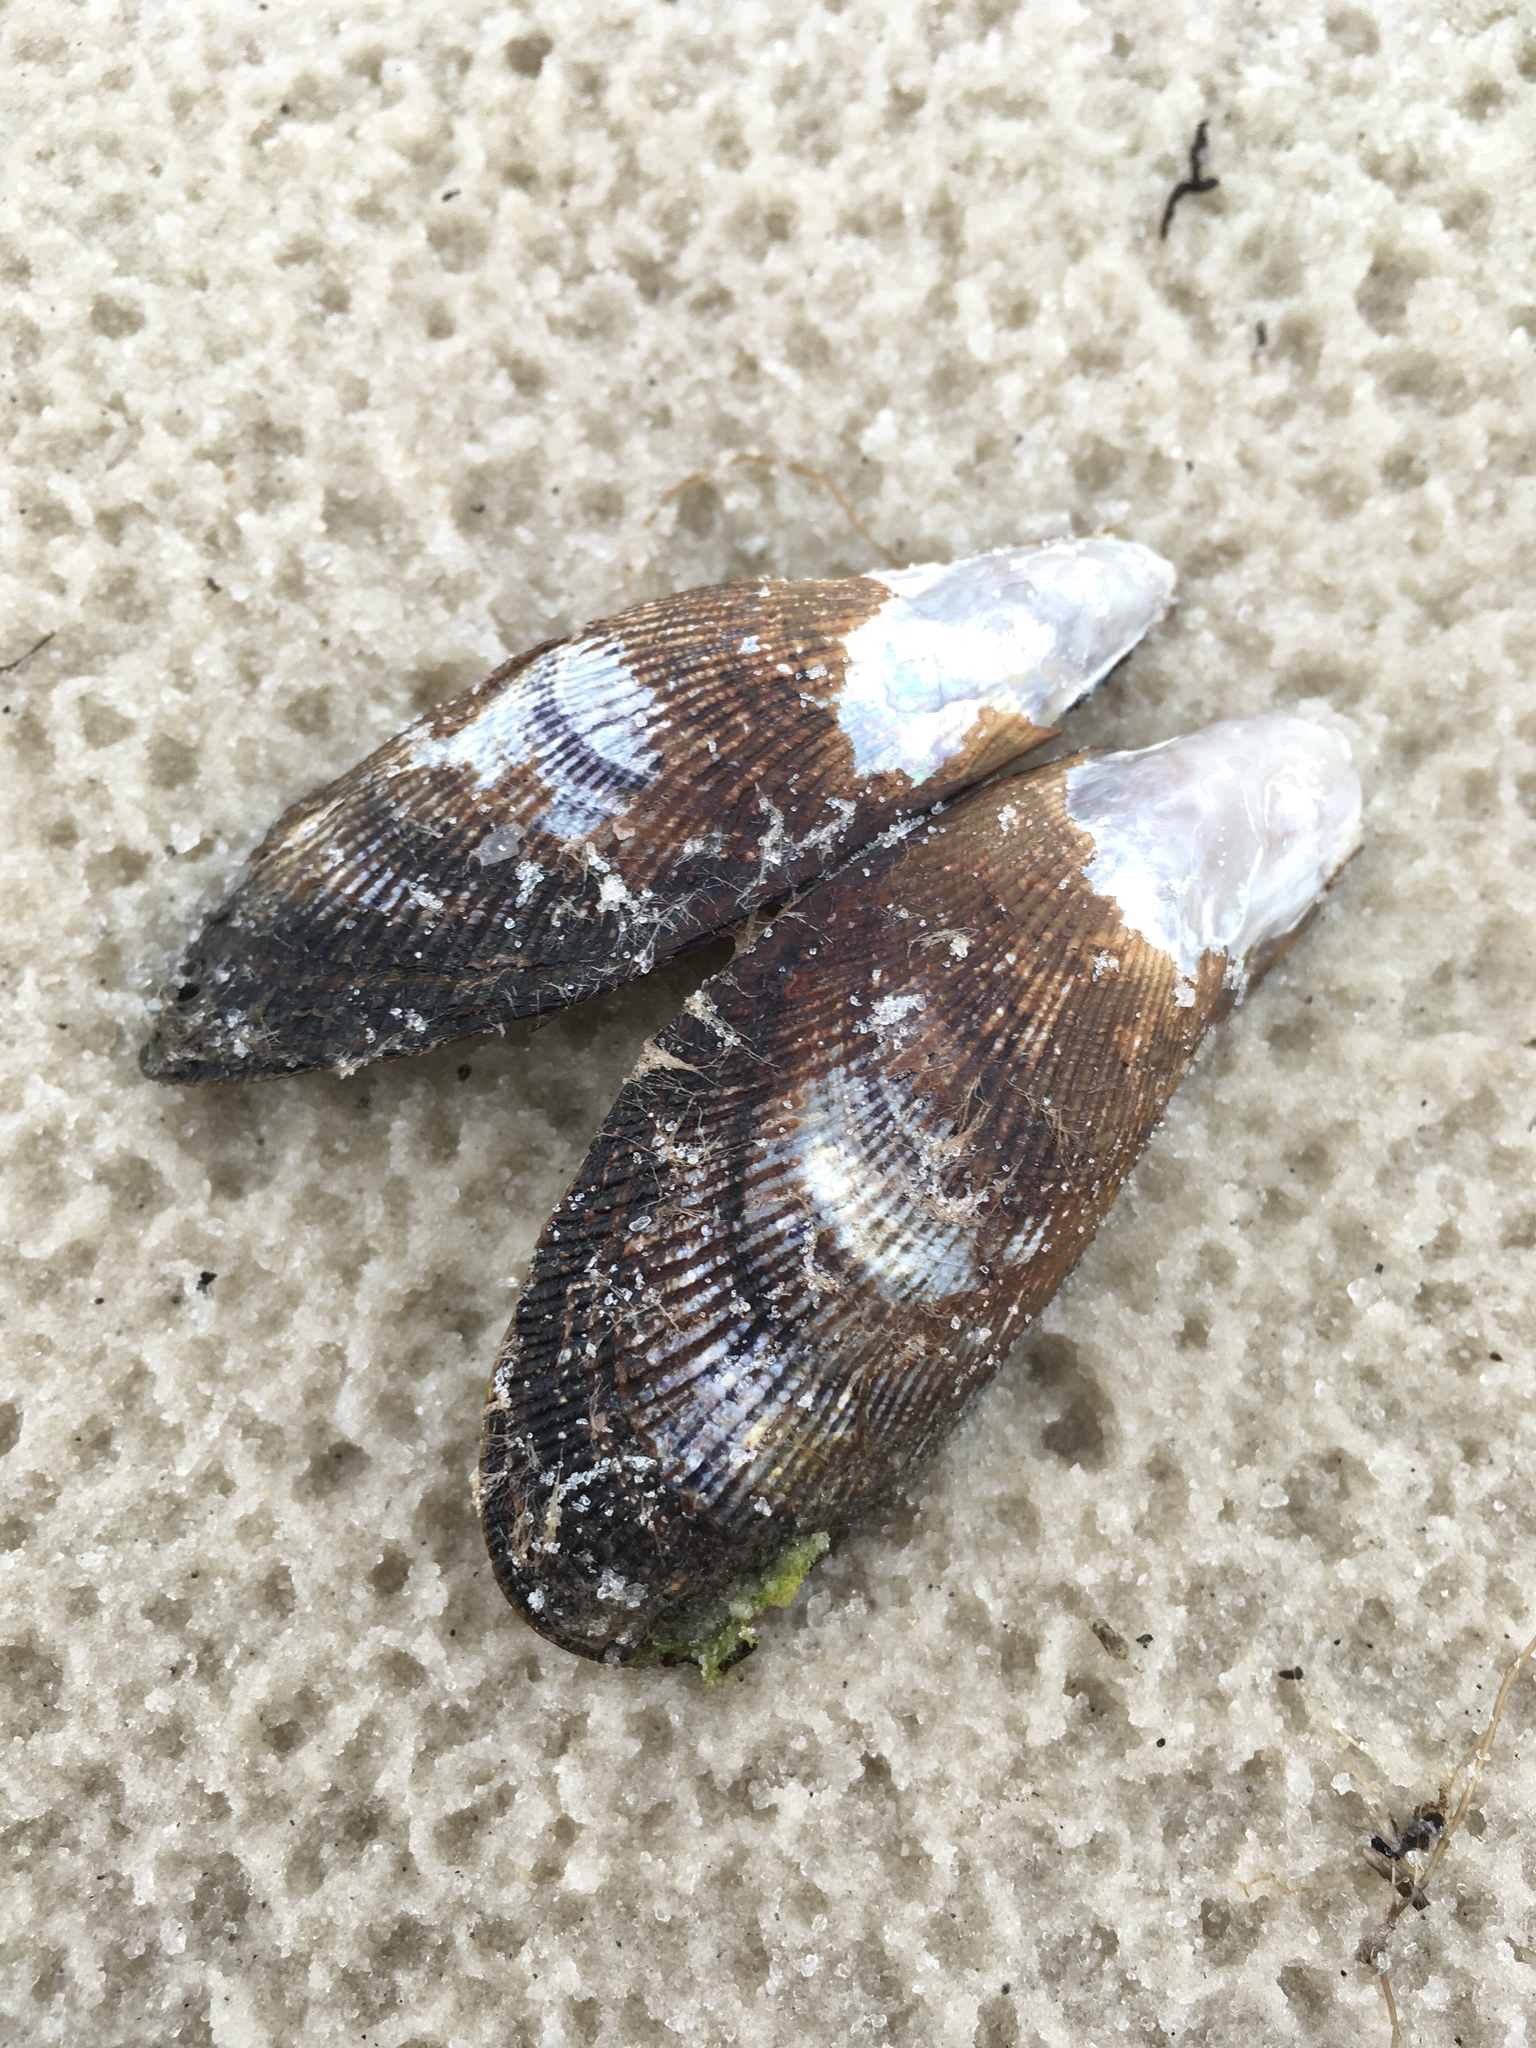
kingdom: Animalia
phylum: Mollusca
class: Bivalvia
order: Mytilida
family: Mytilidae
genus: Geukensia
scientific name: Geukensia granosissima
